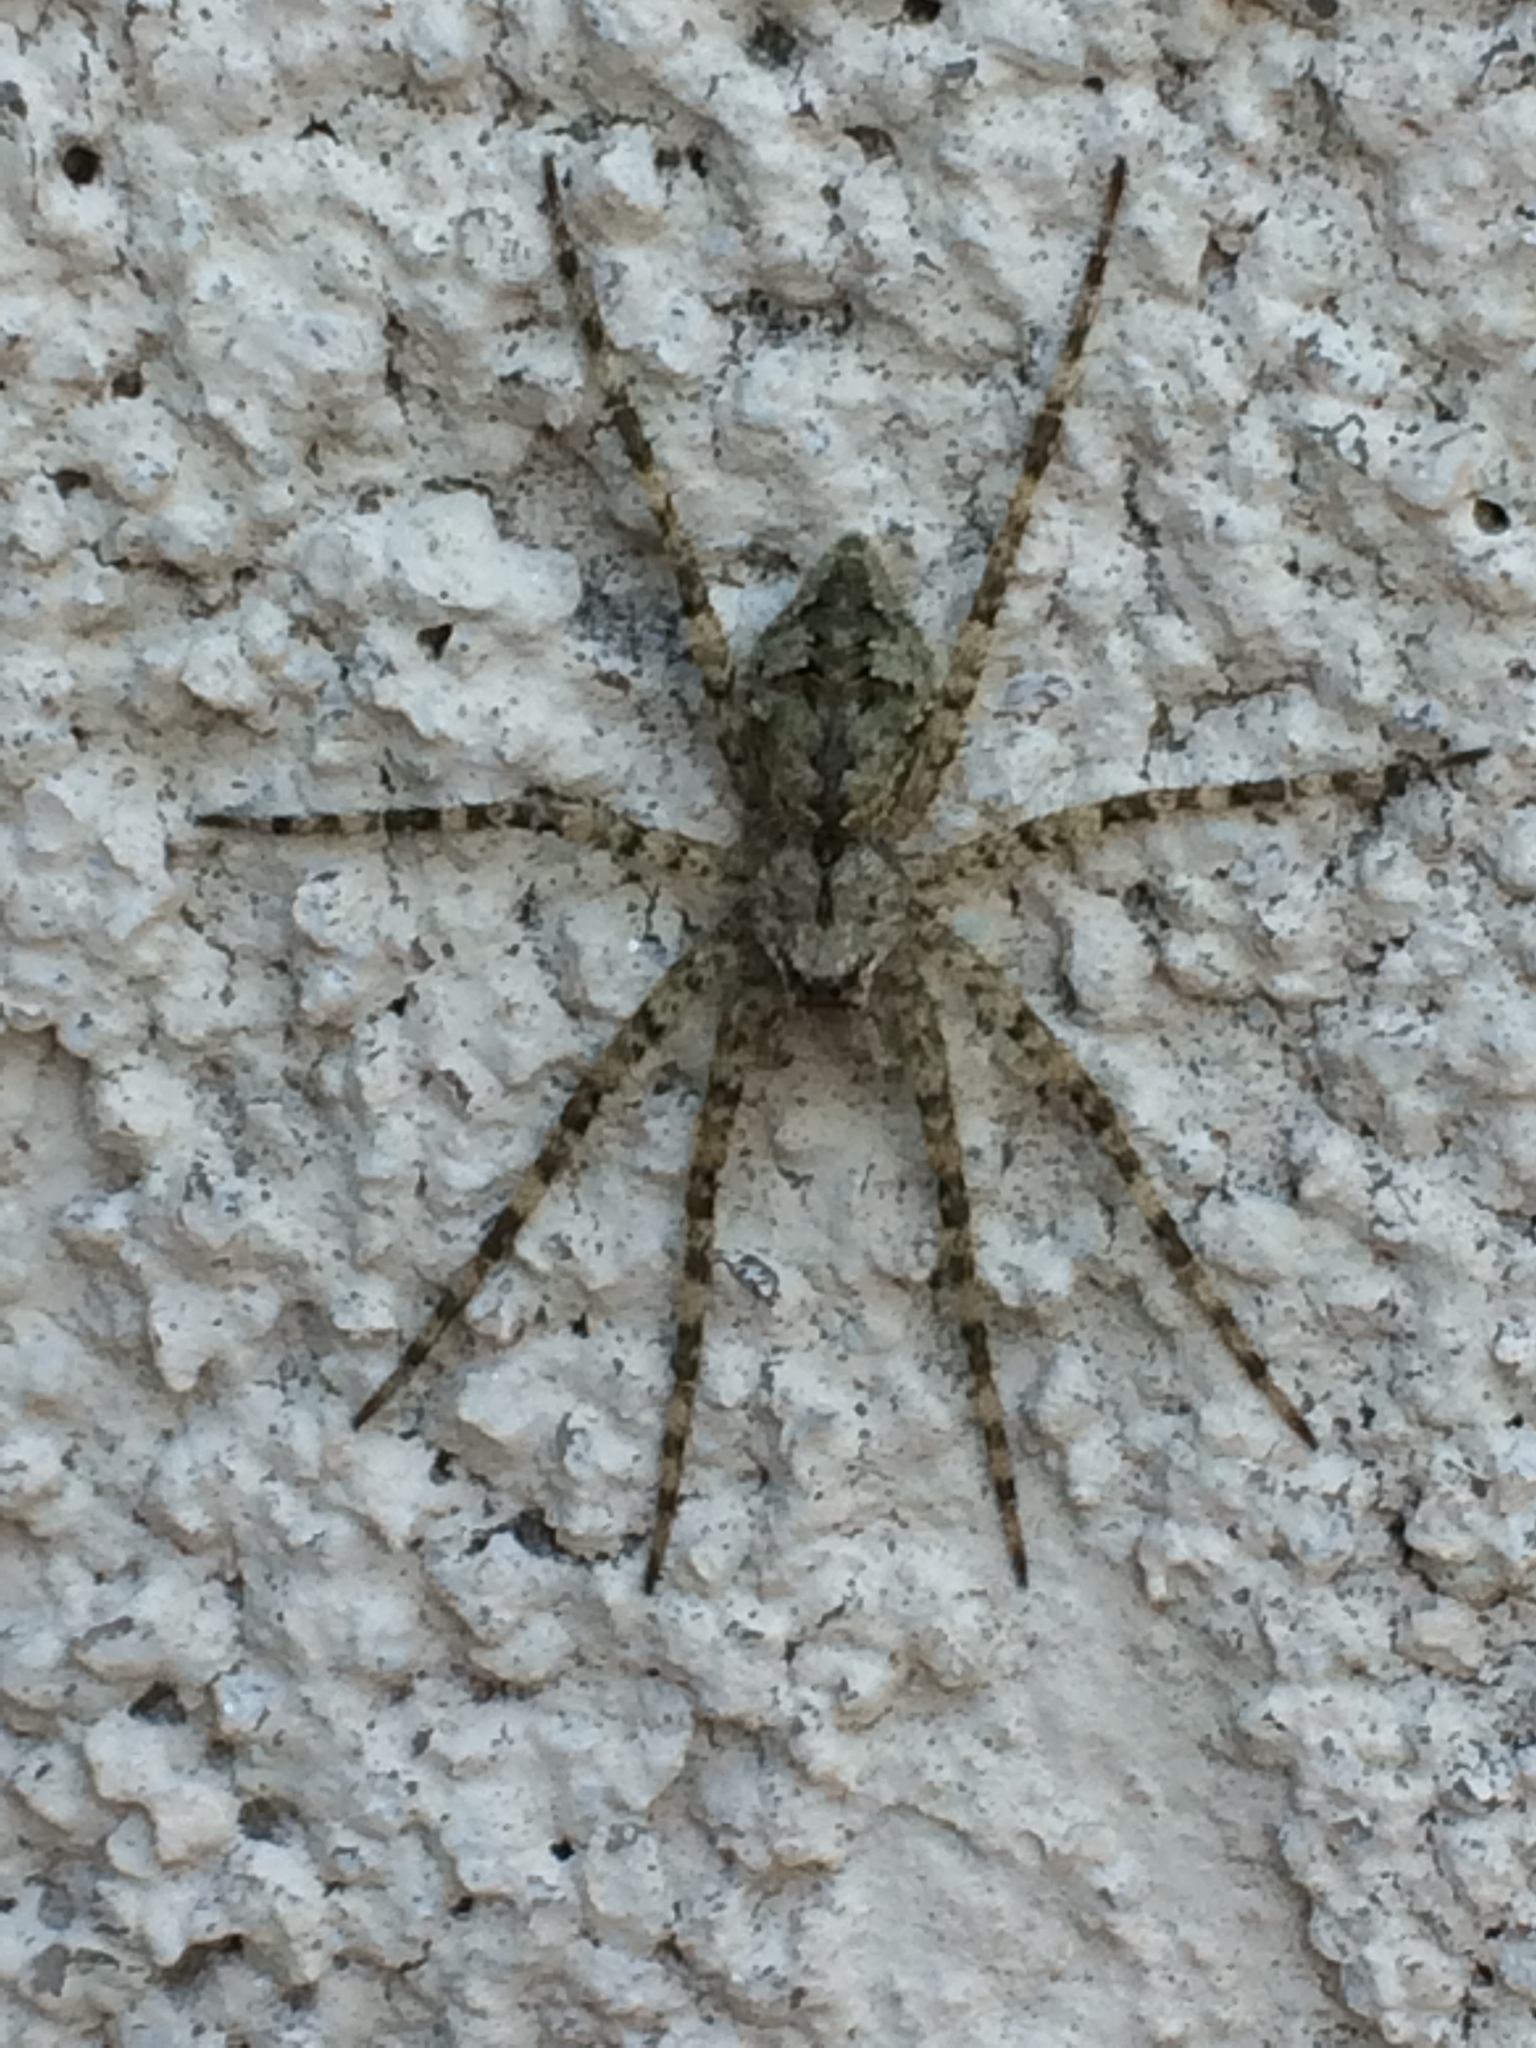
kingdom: Animalia
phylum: Arthropoda
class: Arachnida
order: Araneae
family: Pisauridae
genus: Dolomedes
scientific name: Dolomedes albineus
